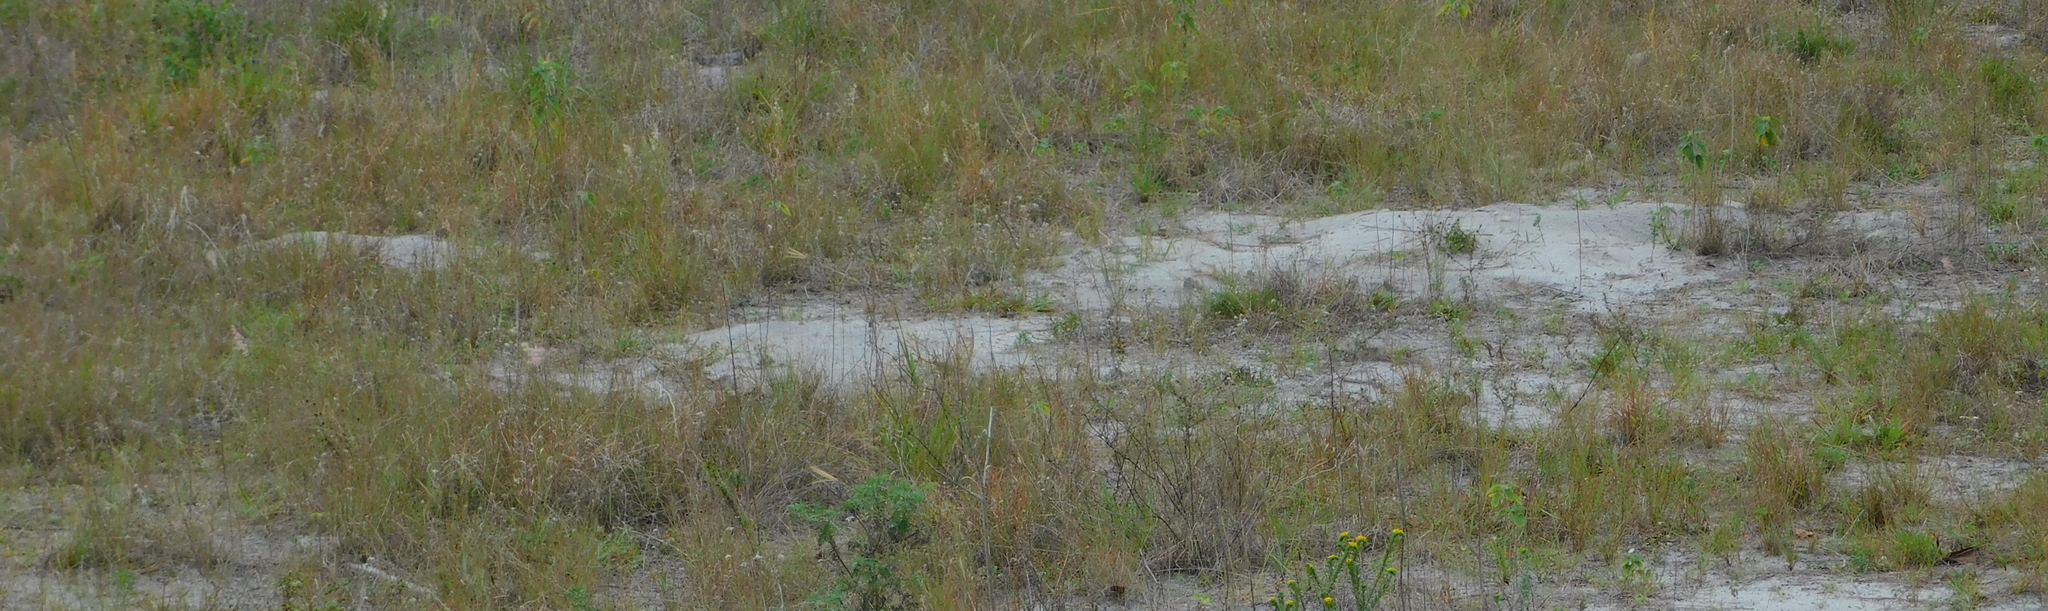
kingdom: Animalia
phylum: Chordata
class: Testudines
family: Testudinidae
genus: Gopherus
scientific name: Gopherus polyphemus
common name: Florida gopher tortoise
